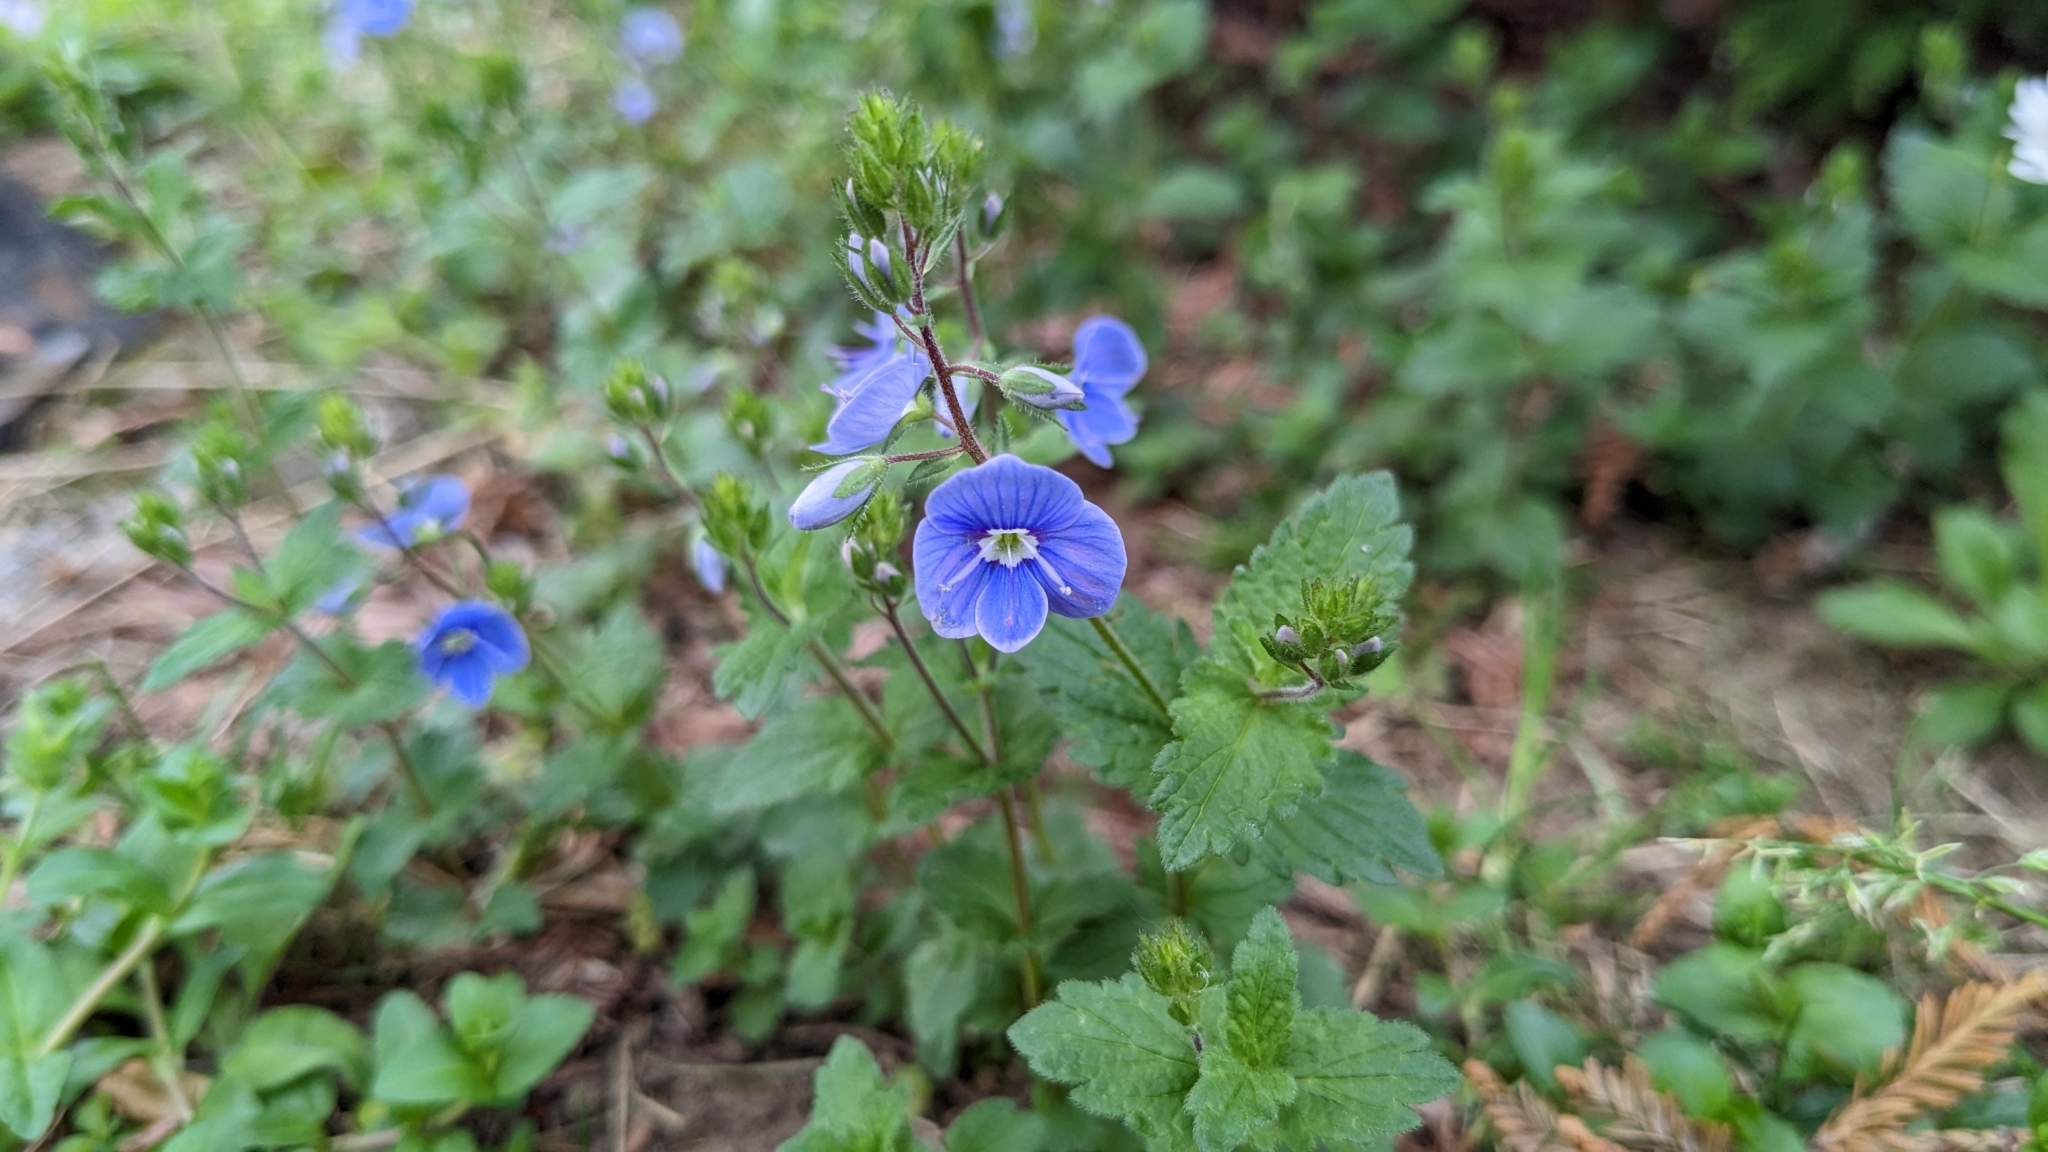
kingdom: Plantae
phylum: Tracheophyta
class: Magnoliopsida
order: Lamiales
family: Plantaginaceae
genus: Veronica
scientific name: Veronica chamaedrys
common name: Germander speedwell
